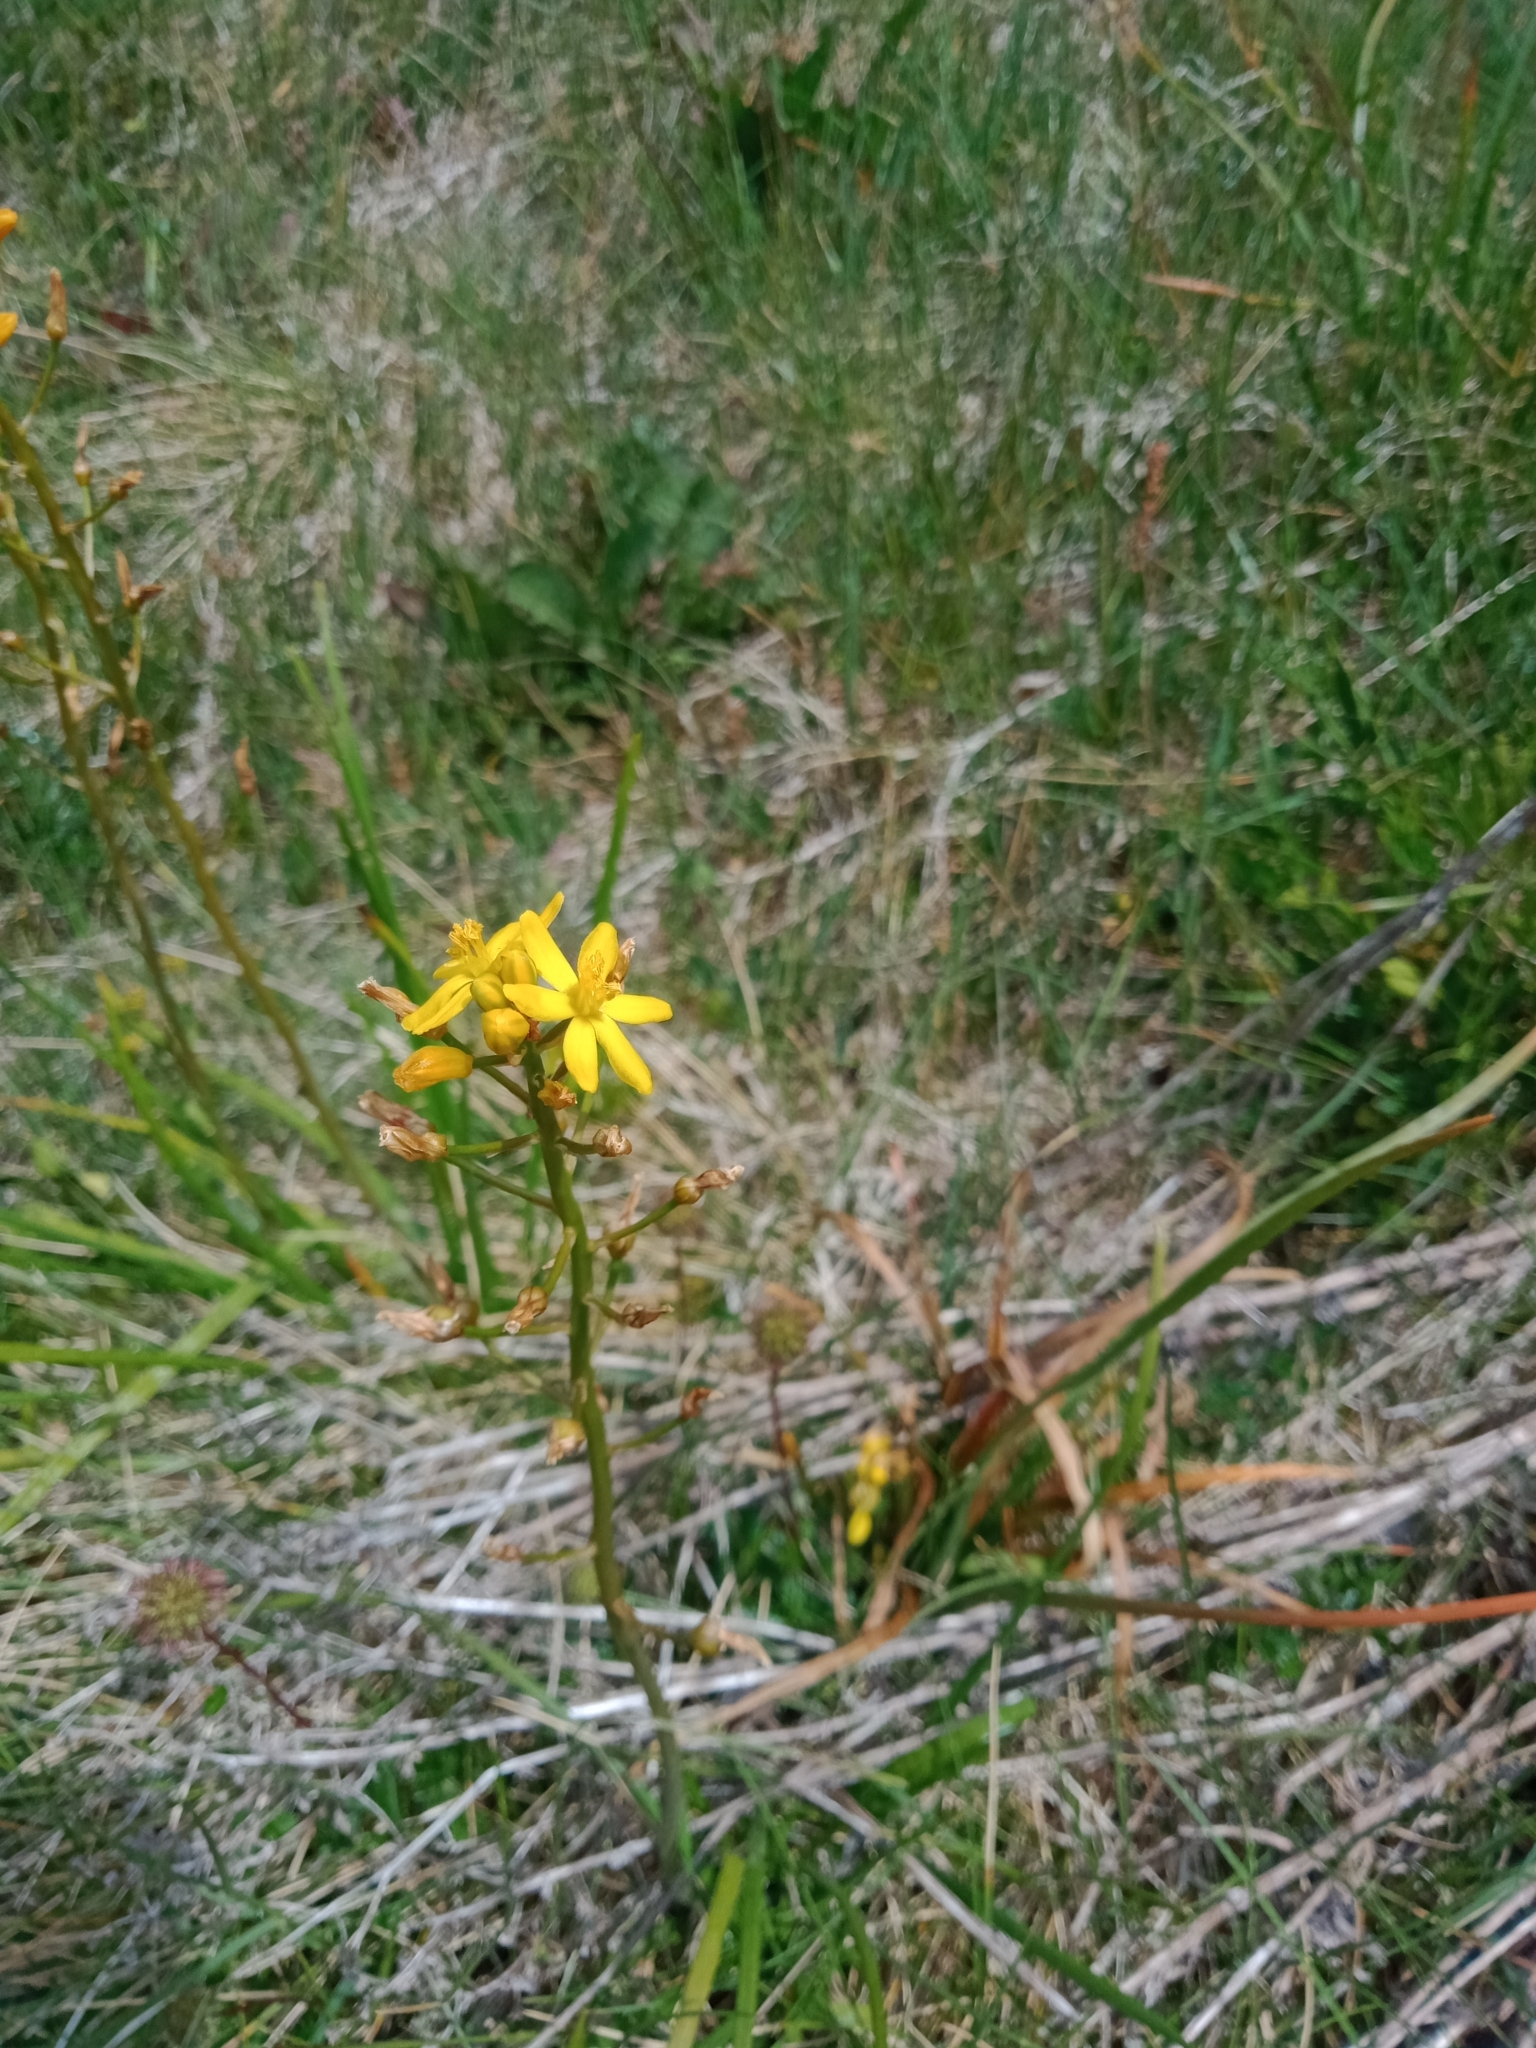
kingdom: Plantae
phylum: Tracheophyta
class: Liliopsida
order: Asparagales
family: Asphodelaceae
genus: Bulbine
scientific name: Bulbine bulbosa
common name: Golden-lily
